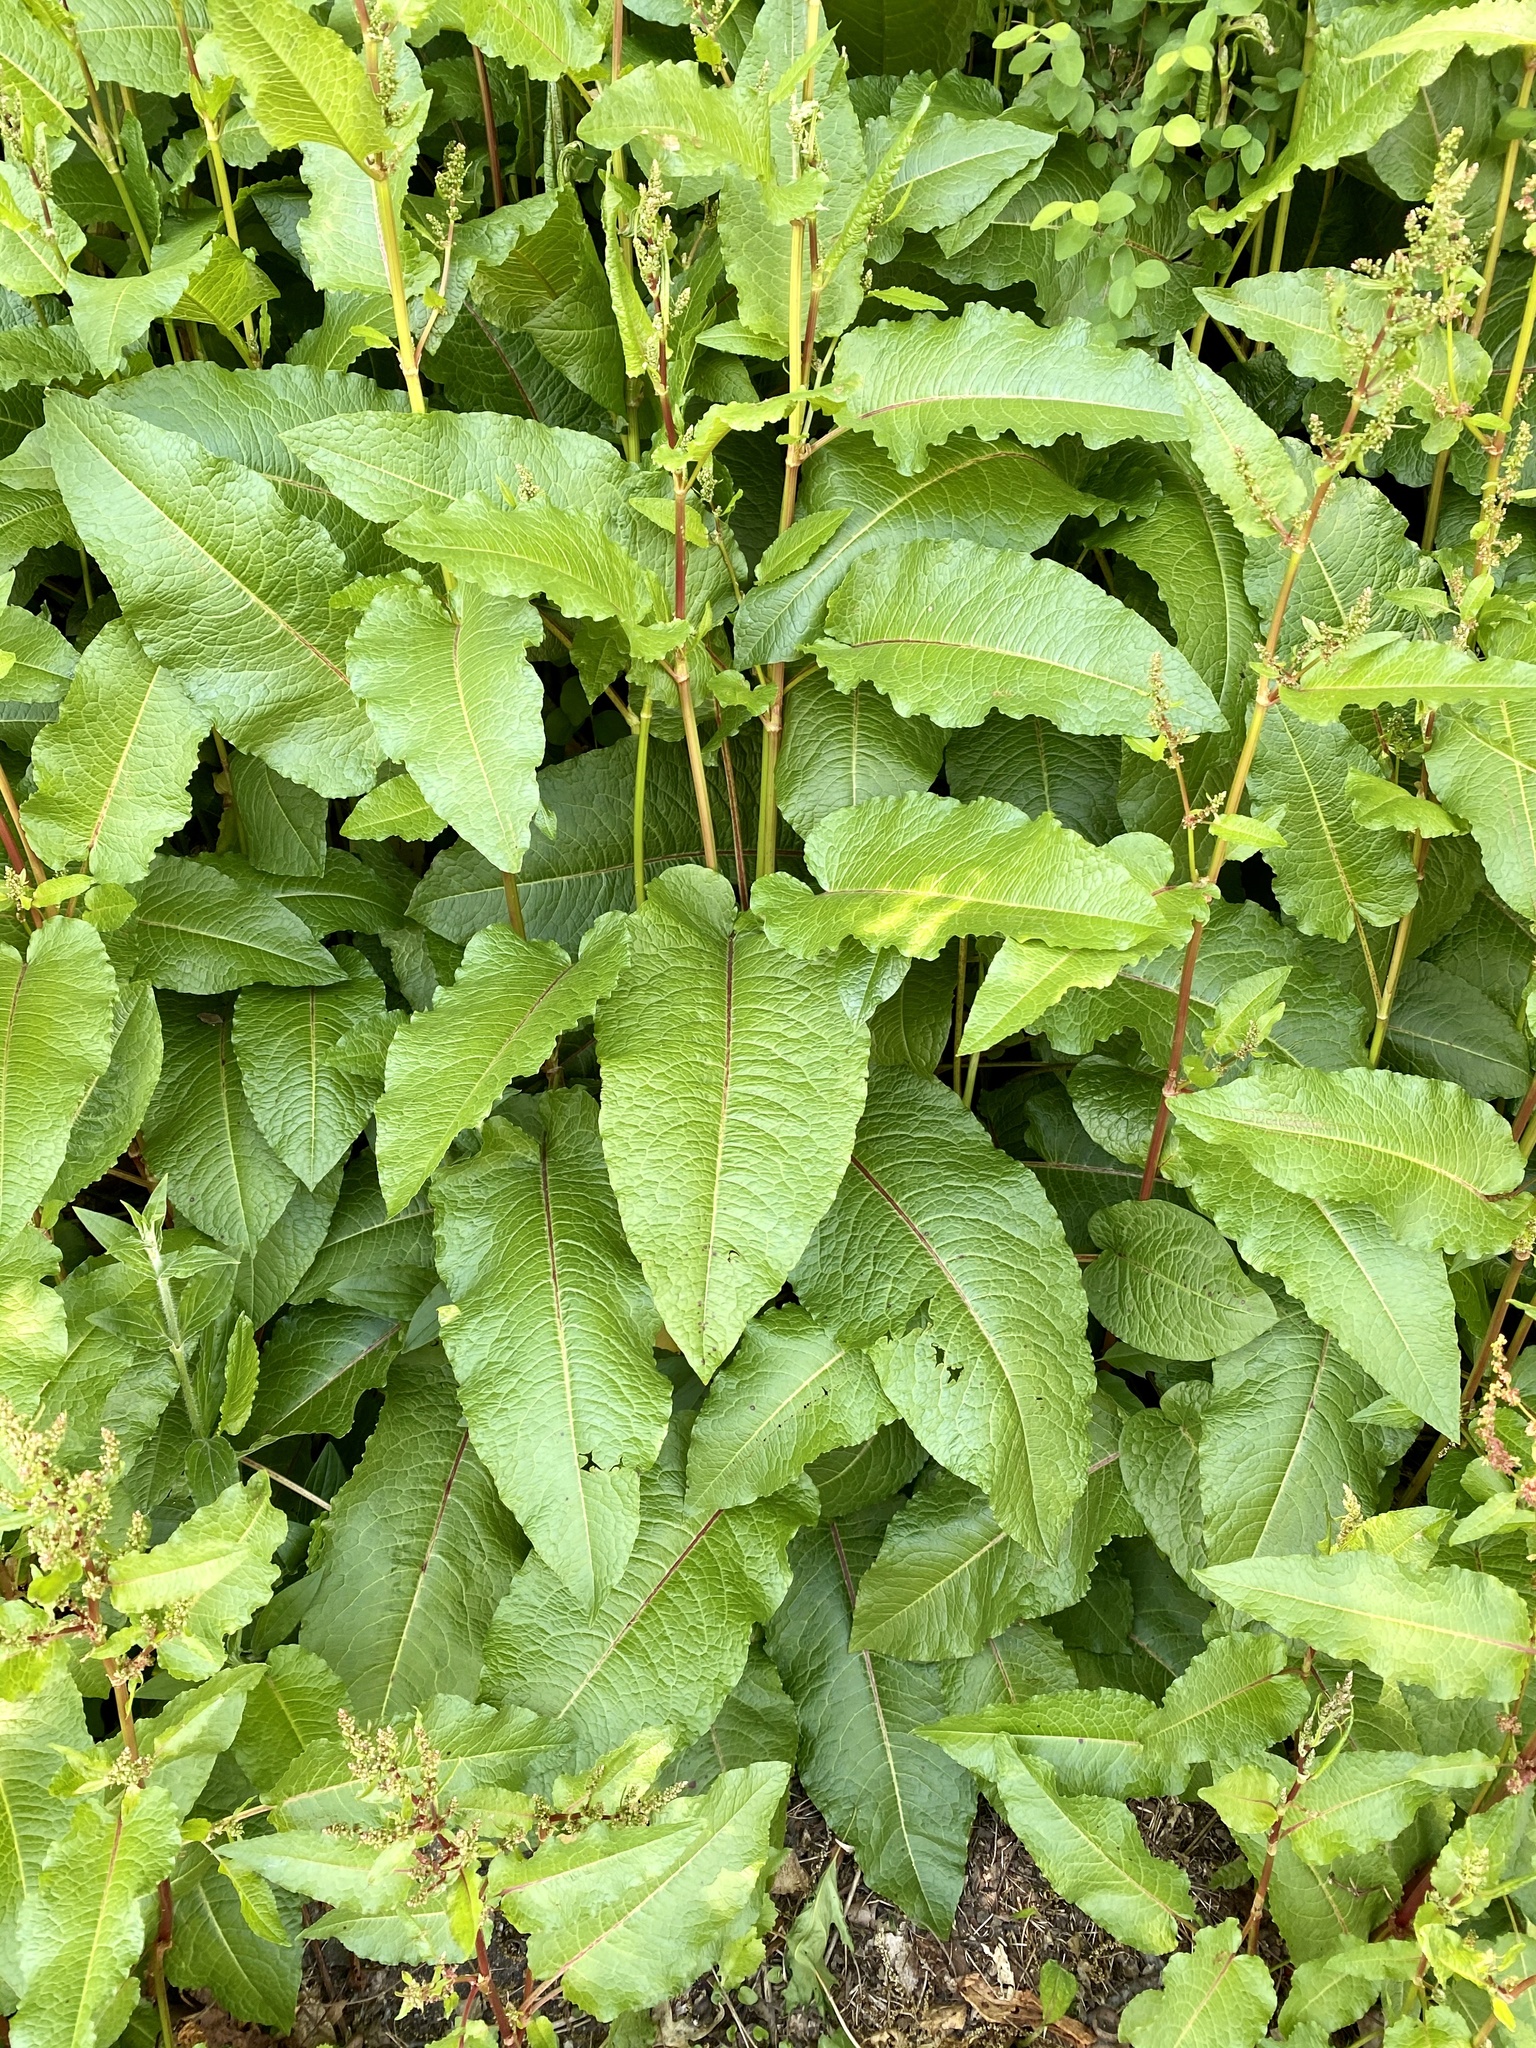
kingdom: Plantae
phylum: Tracheophyta
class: Magnoliopsida
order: Caryophyllales
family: Polygonaceae
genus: Rumex
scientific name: Rumex obtusifolius
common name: Bitter dock
